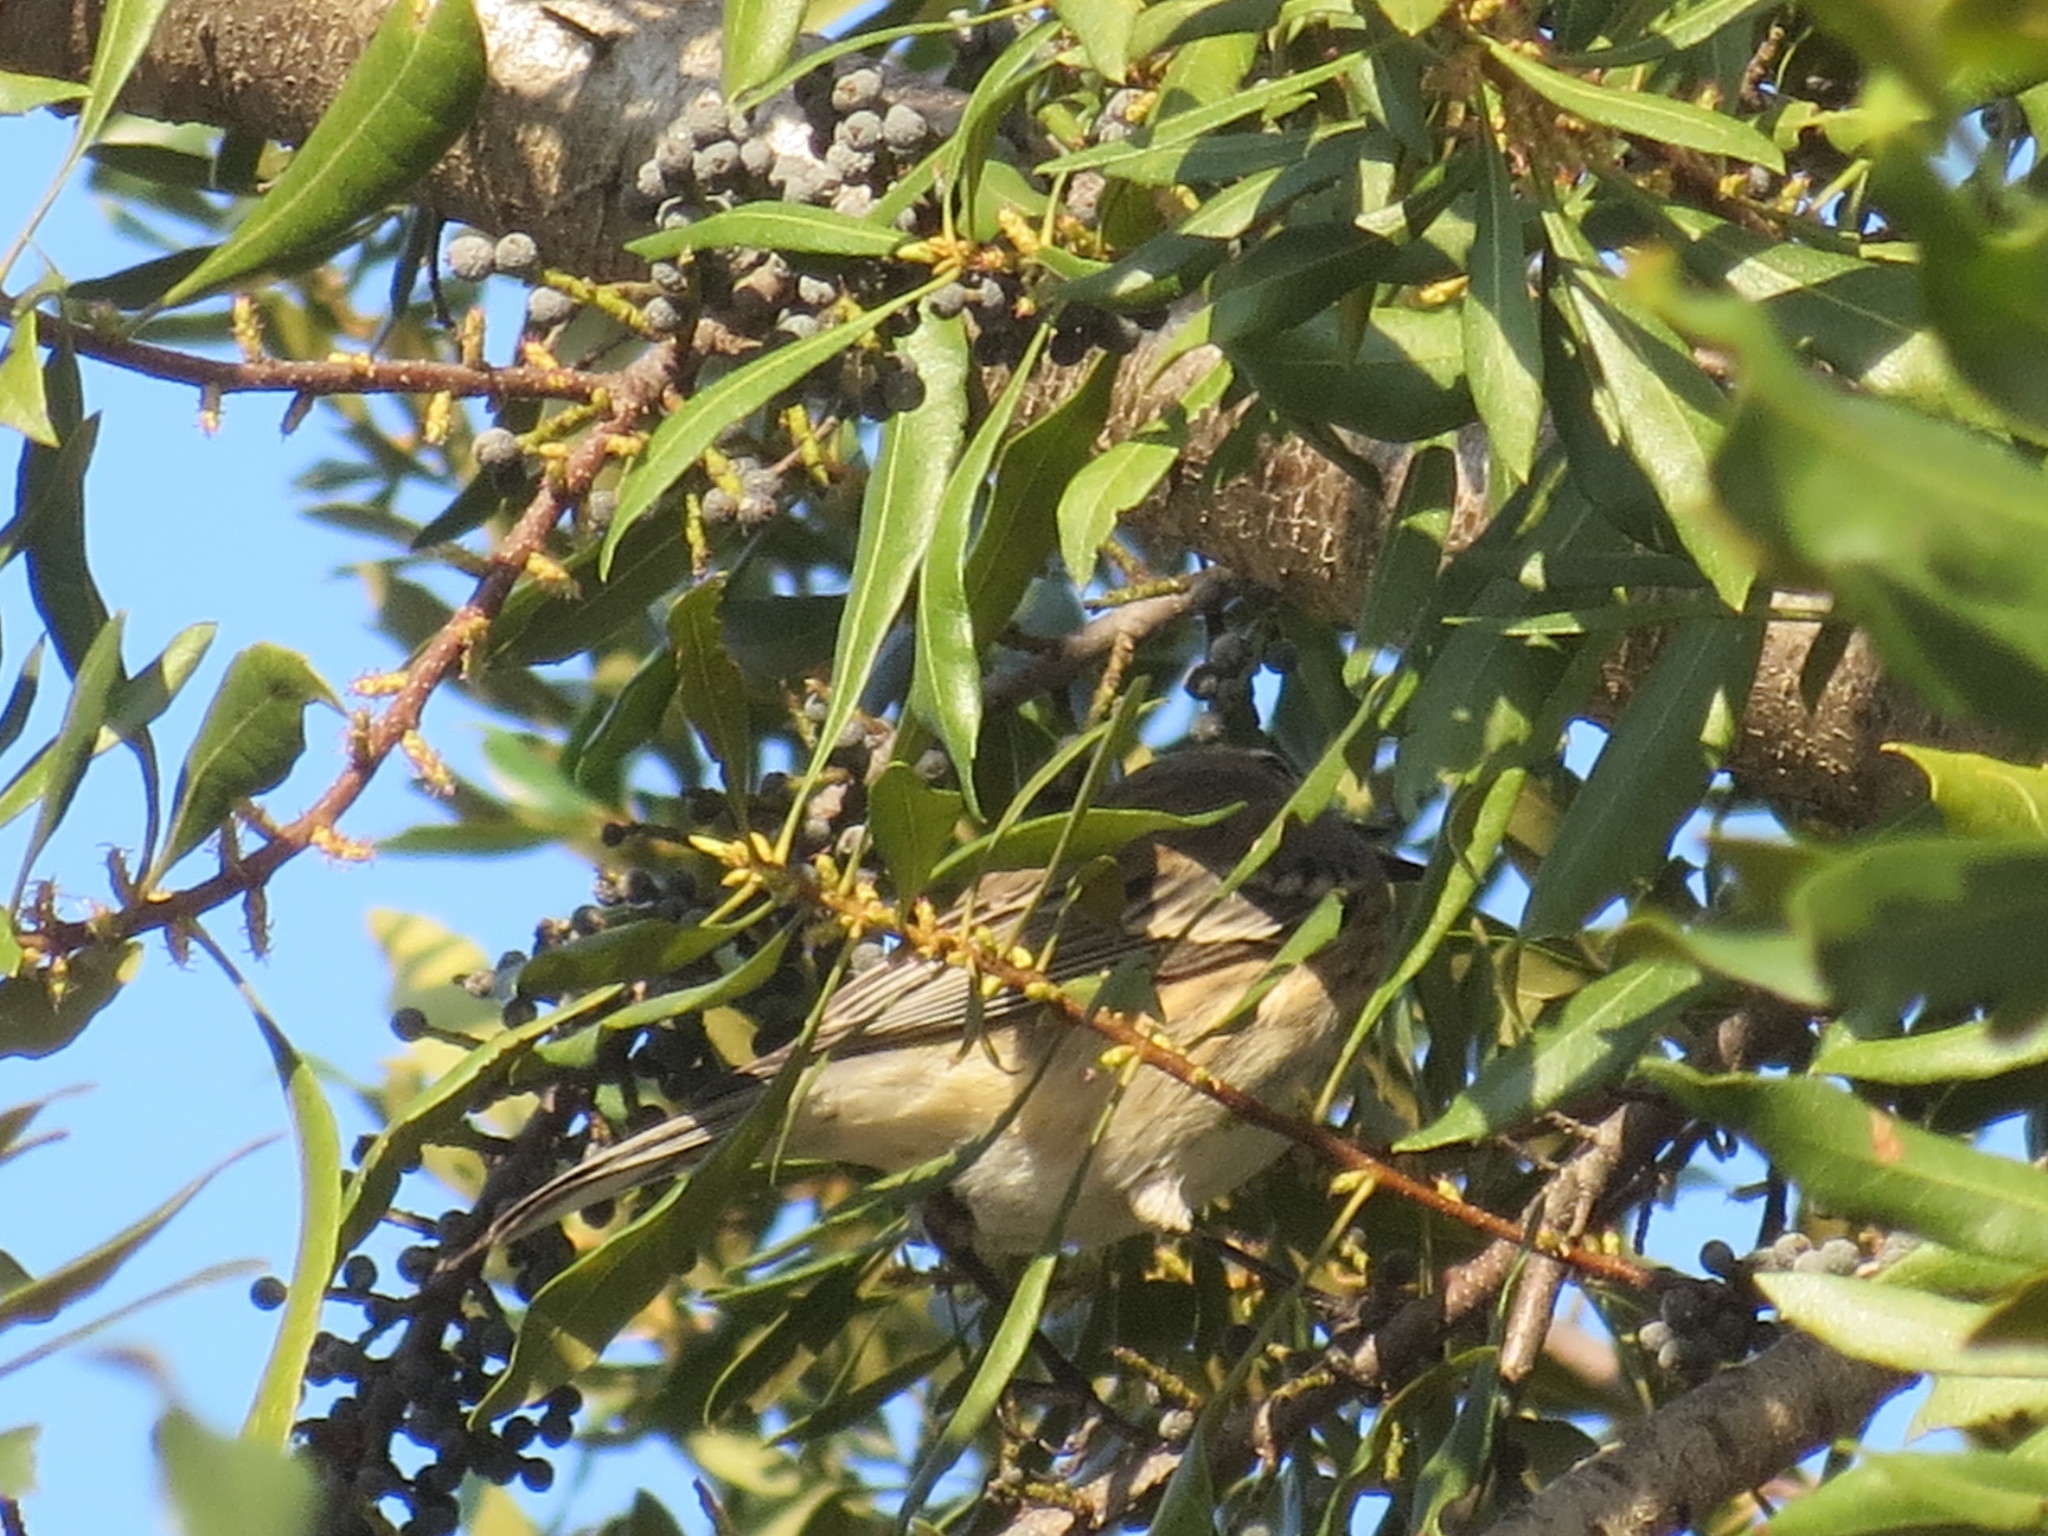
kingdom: Animalia
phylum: Chordata
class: Aves
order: Passeriformes
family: Parulidae
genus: Setophaga
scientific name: Setophaga coronata
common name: Myrtle warbler
